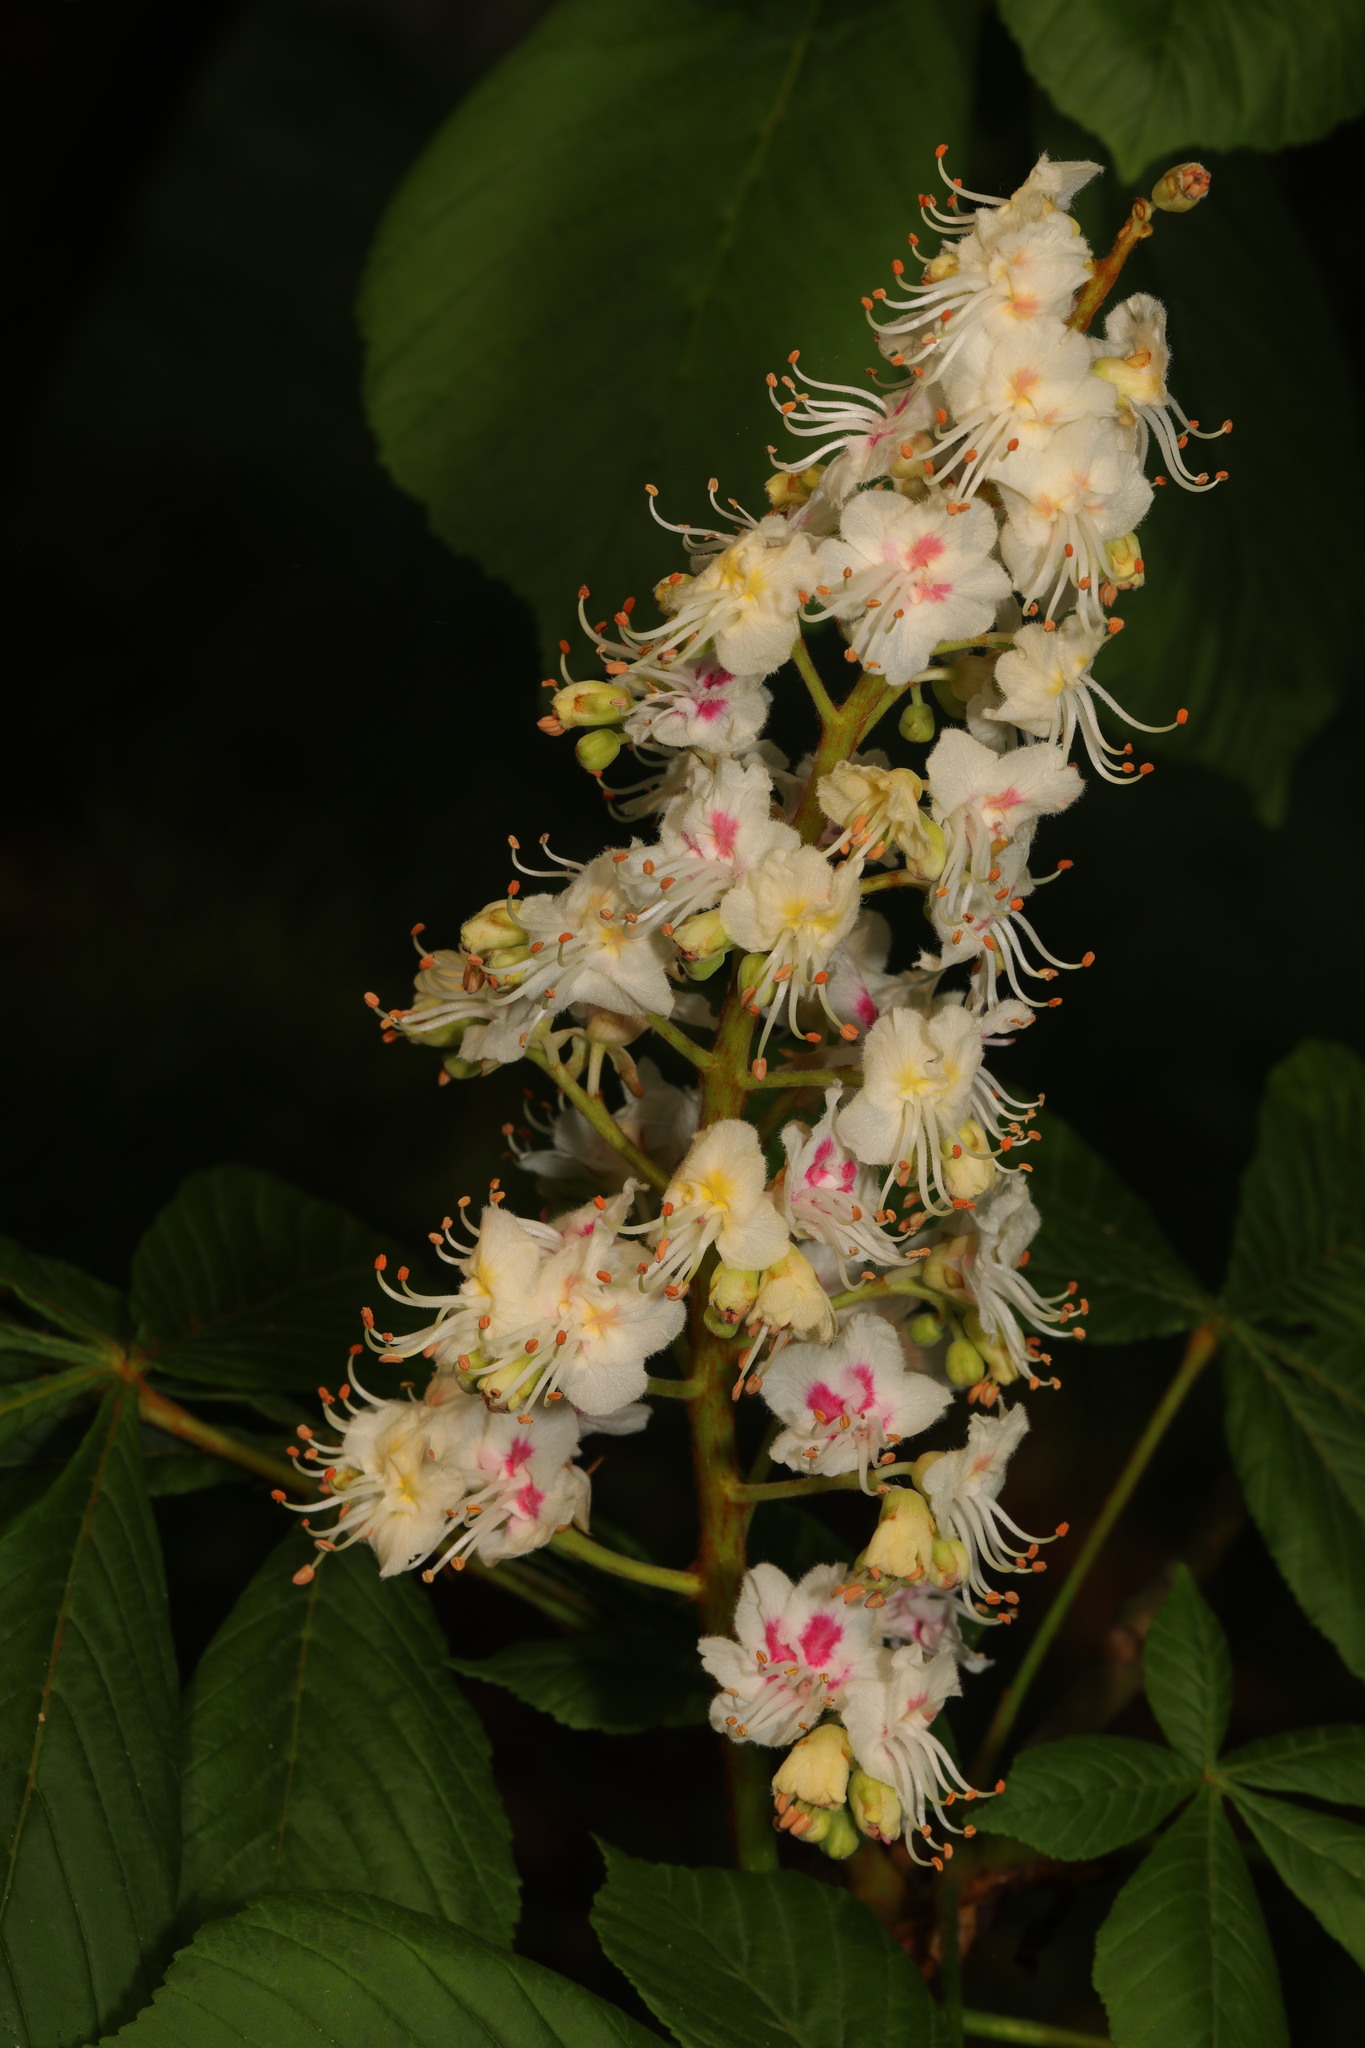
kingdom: Plantae
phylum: Tracheophyta
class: Magnoliopsida
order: Sapindales
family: Sapindaceae
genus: Aesculus
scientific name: Aesculus hippocastanum
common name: Horse-chestnut
